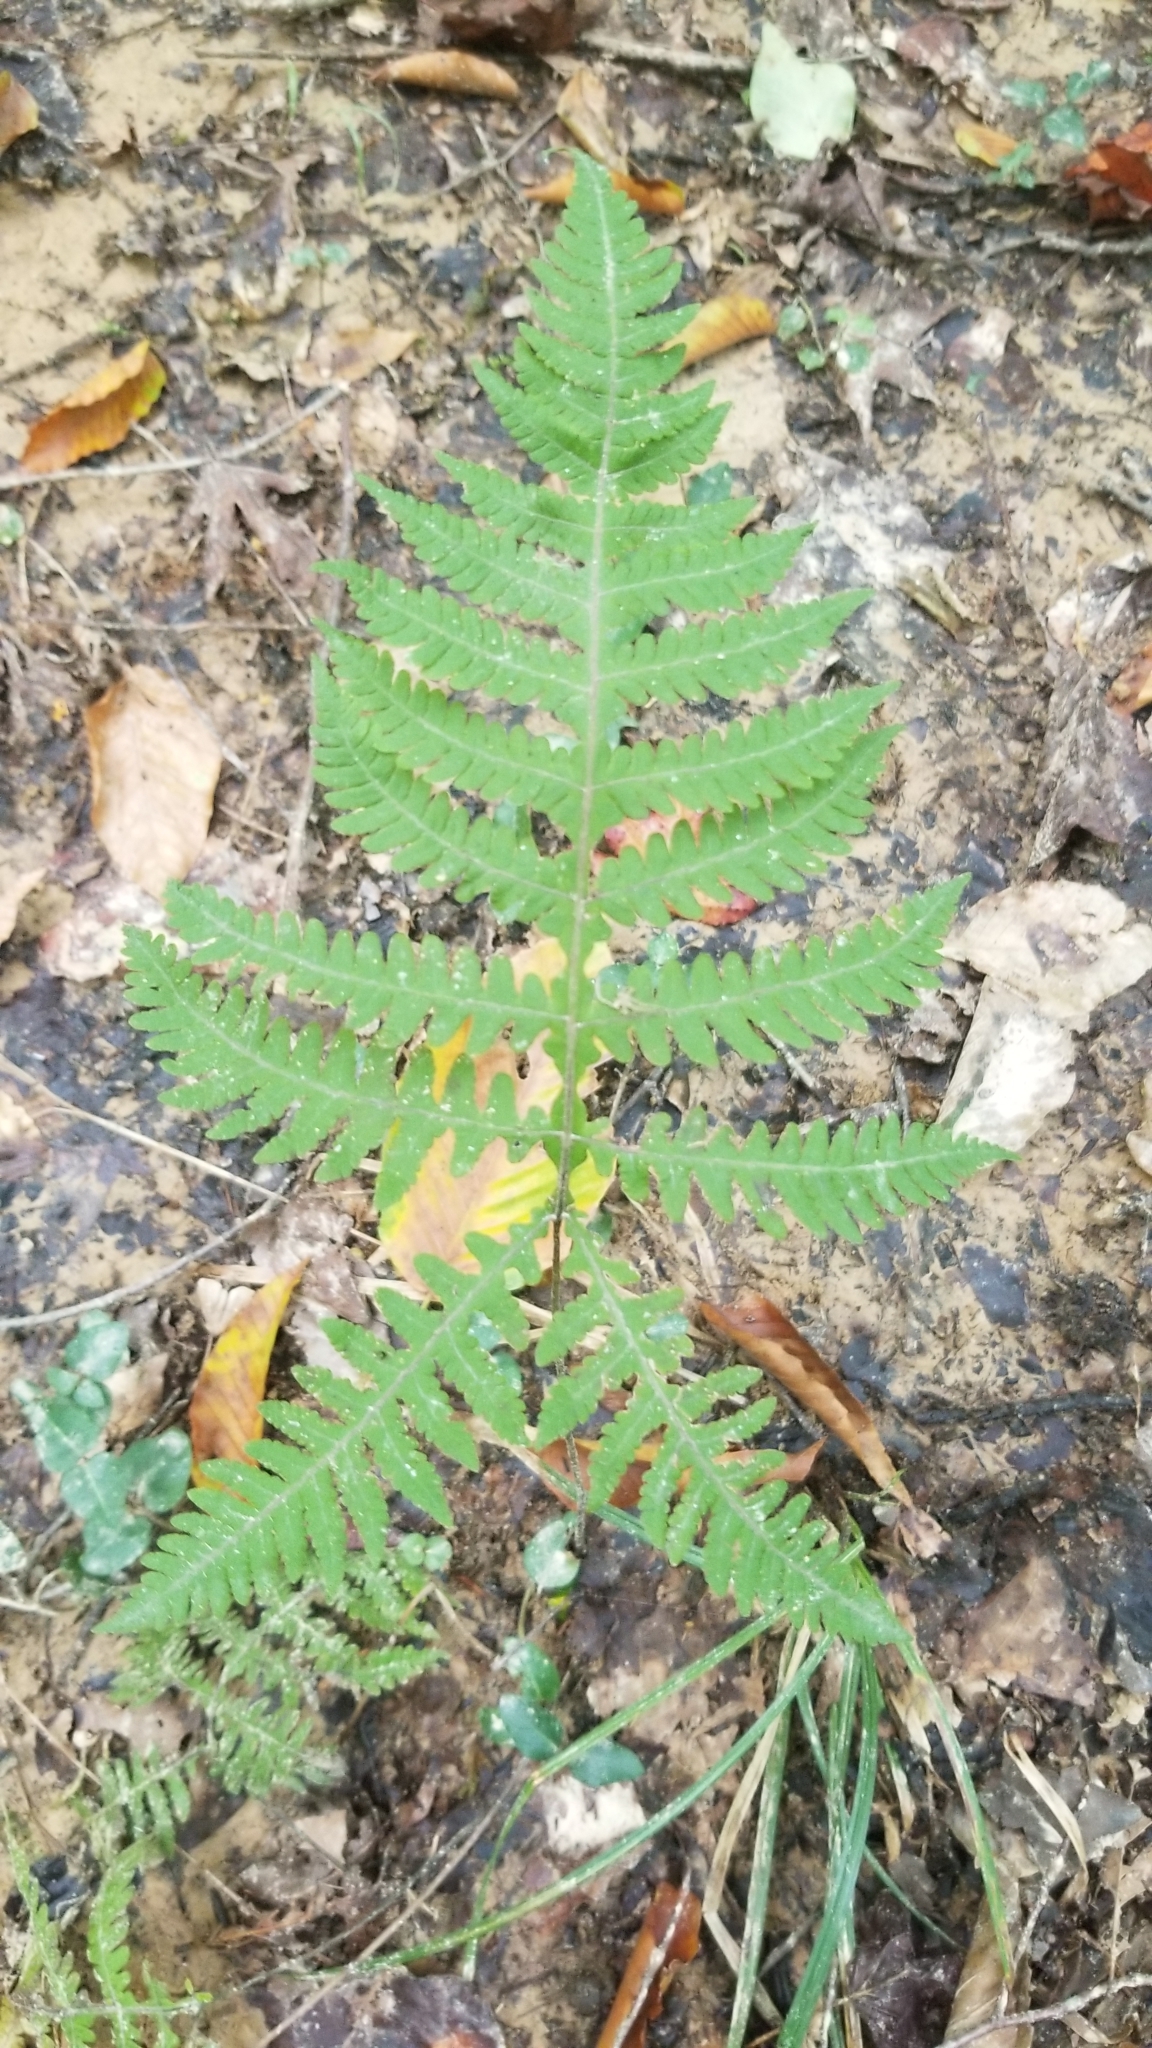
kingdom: Plantae
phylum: Tracheophyta
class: Polypodiopsida
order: Polypodiales
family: Thelypteridaceae
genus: Phegopteris
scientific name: Phegopteris hexagonoptera
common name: Broad beech fern
